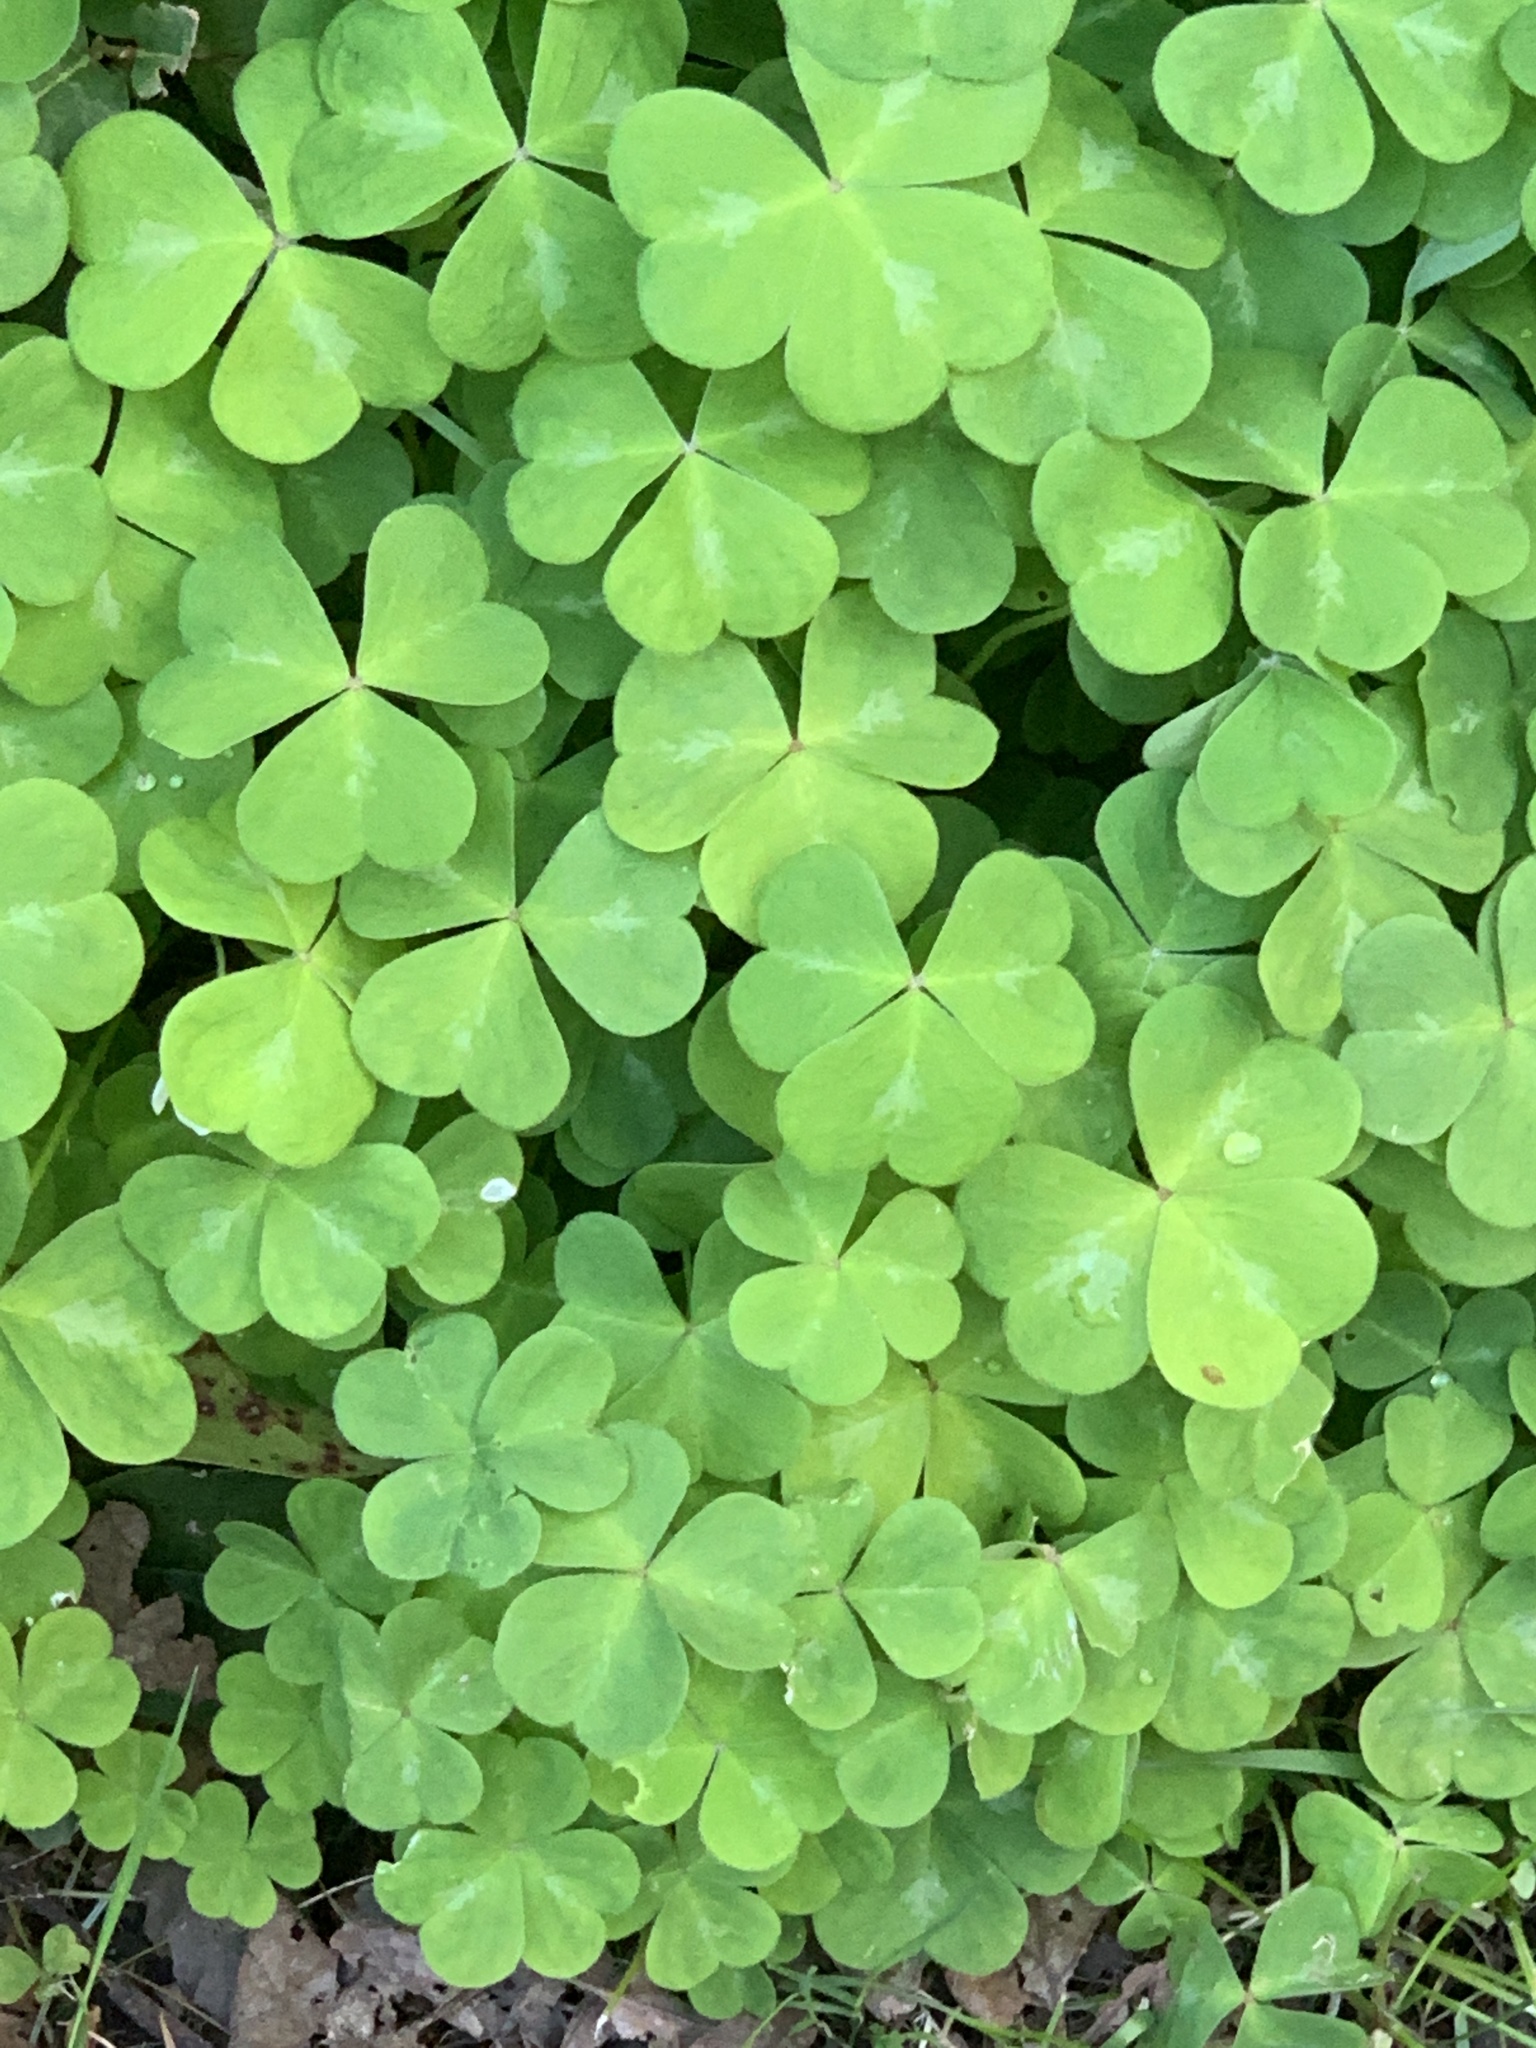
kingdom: Plantae
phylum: Tracheophyta
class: Magnoliopsida
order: Oxalidales
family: Oxalidaceae
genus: Oxalis
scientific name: Oxalis oregana
